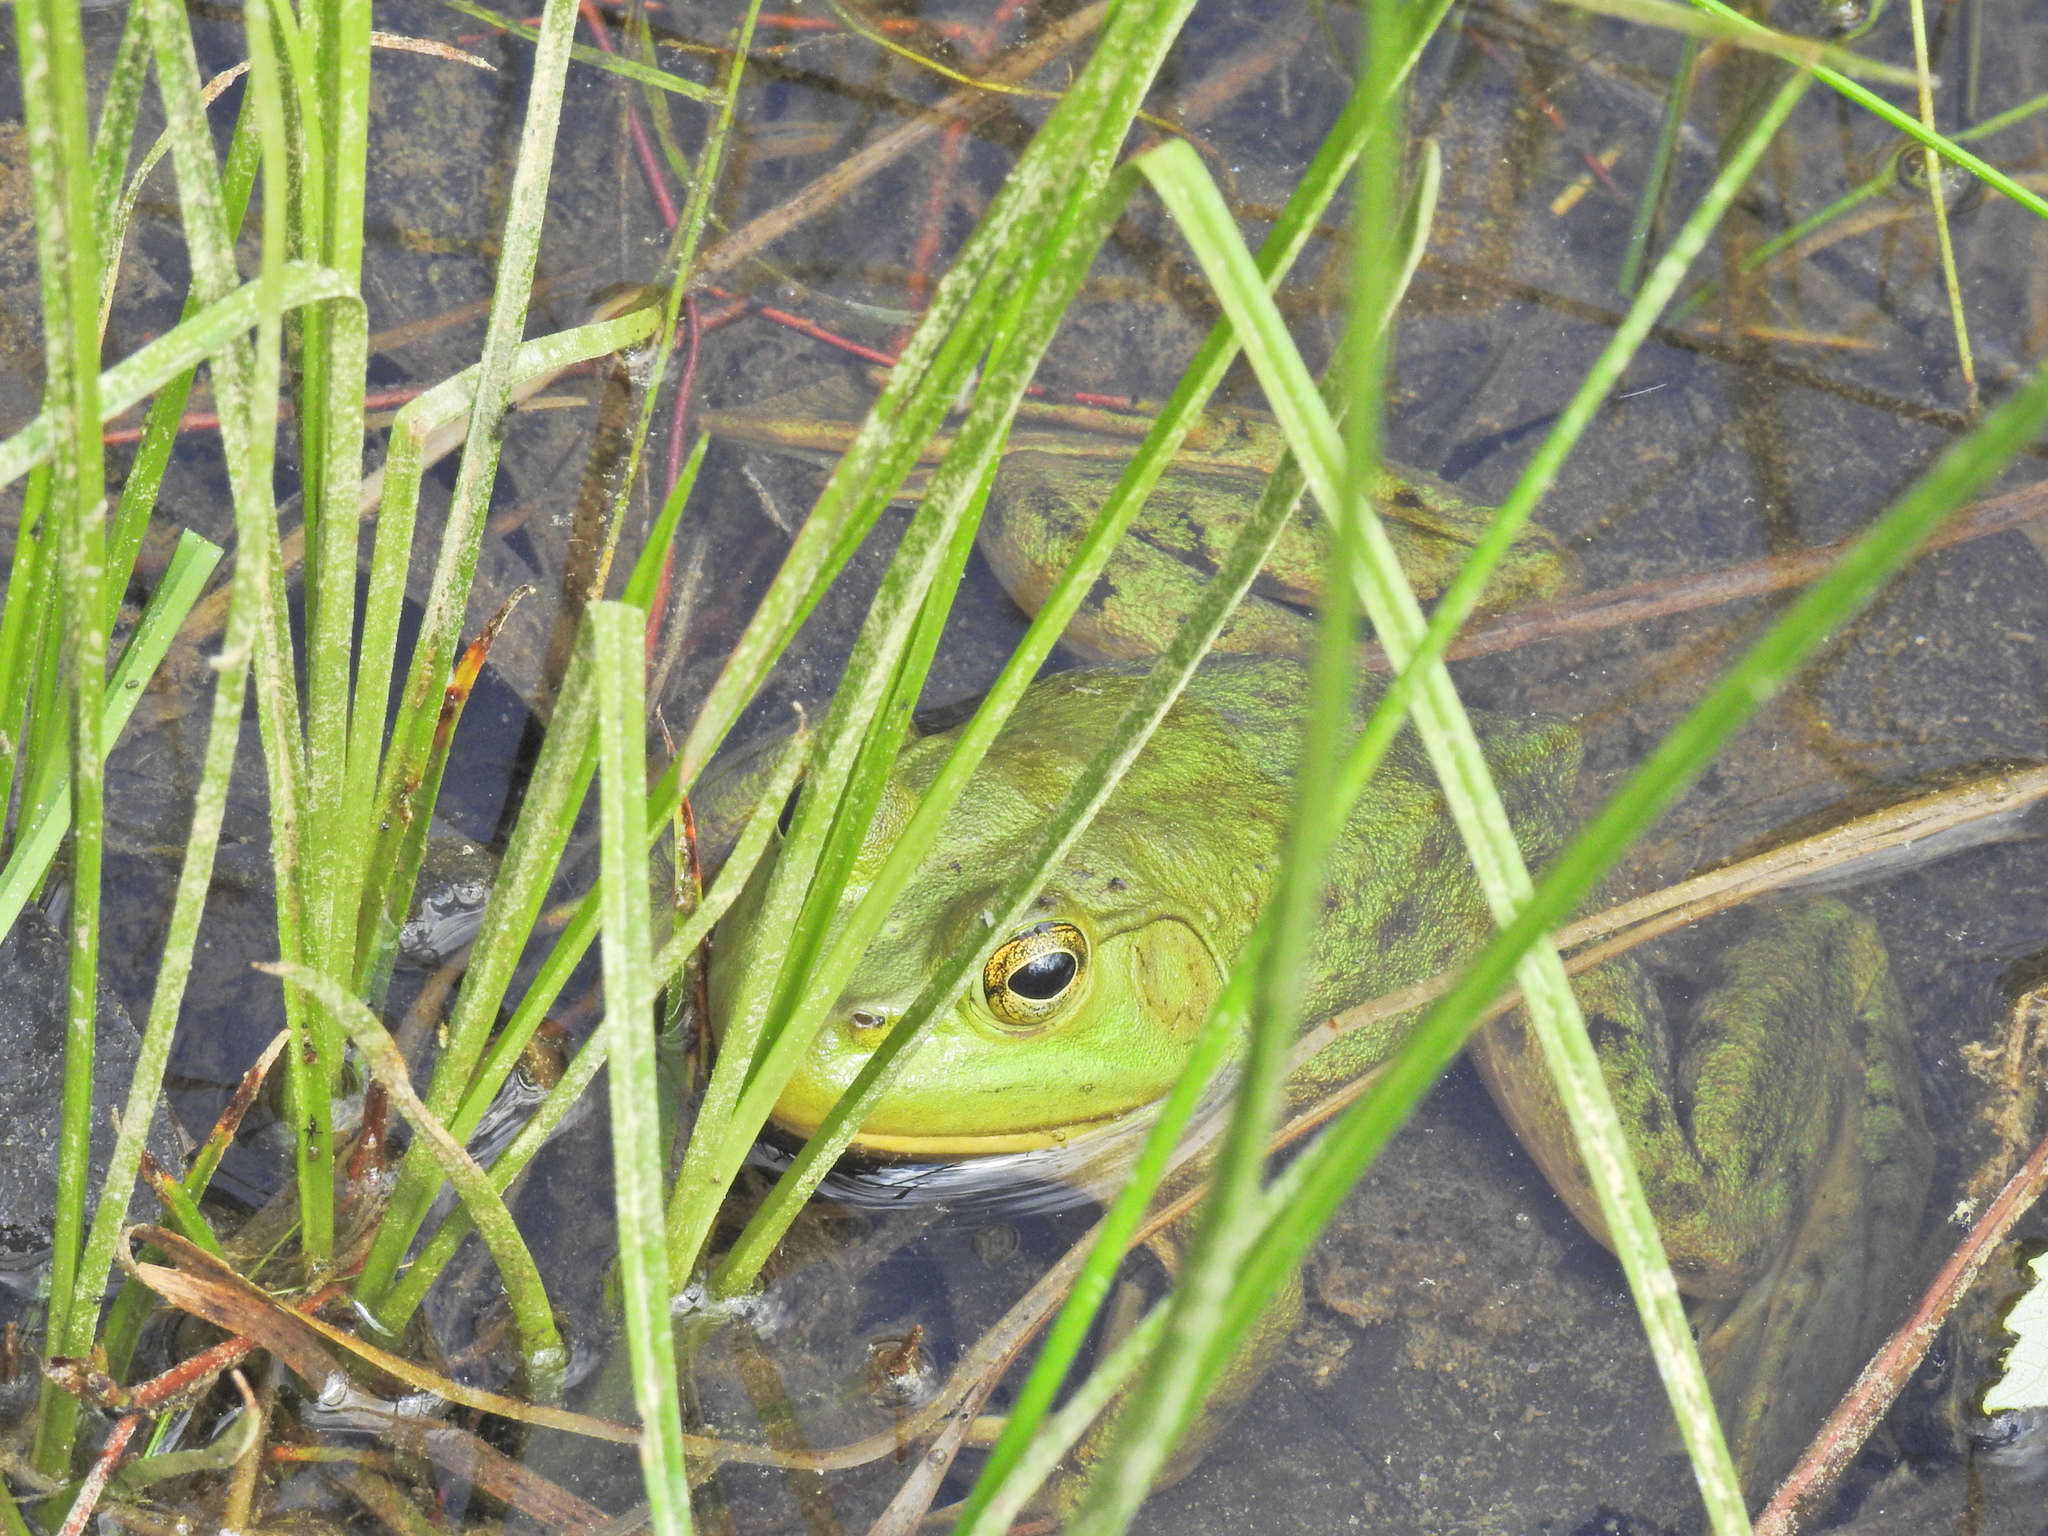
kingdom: Animalia
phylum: Chordata
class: Amphibia
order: Anura
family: Ranidae
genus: Lithobates
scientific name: Lithobates catesbeianus
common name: American bullfrog
